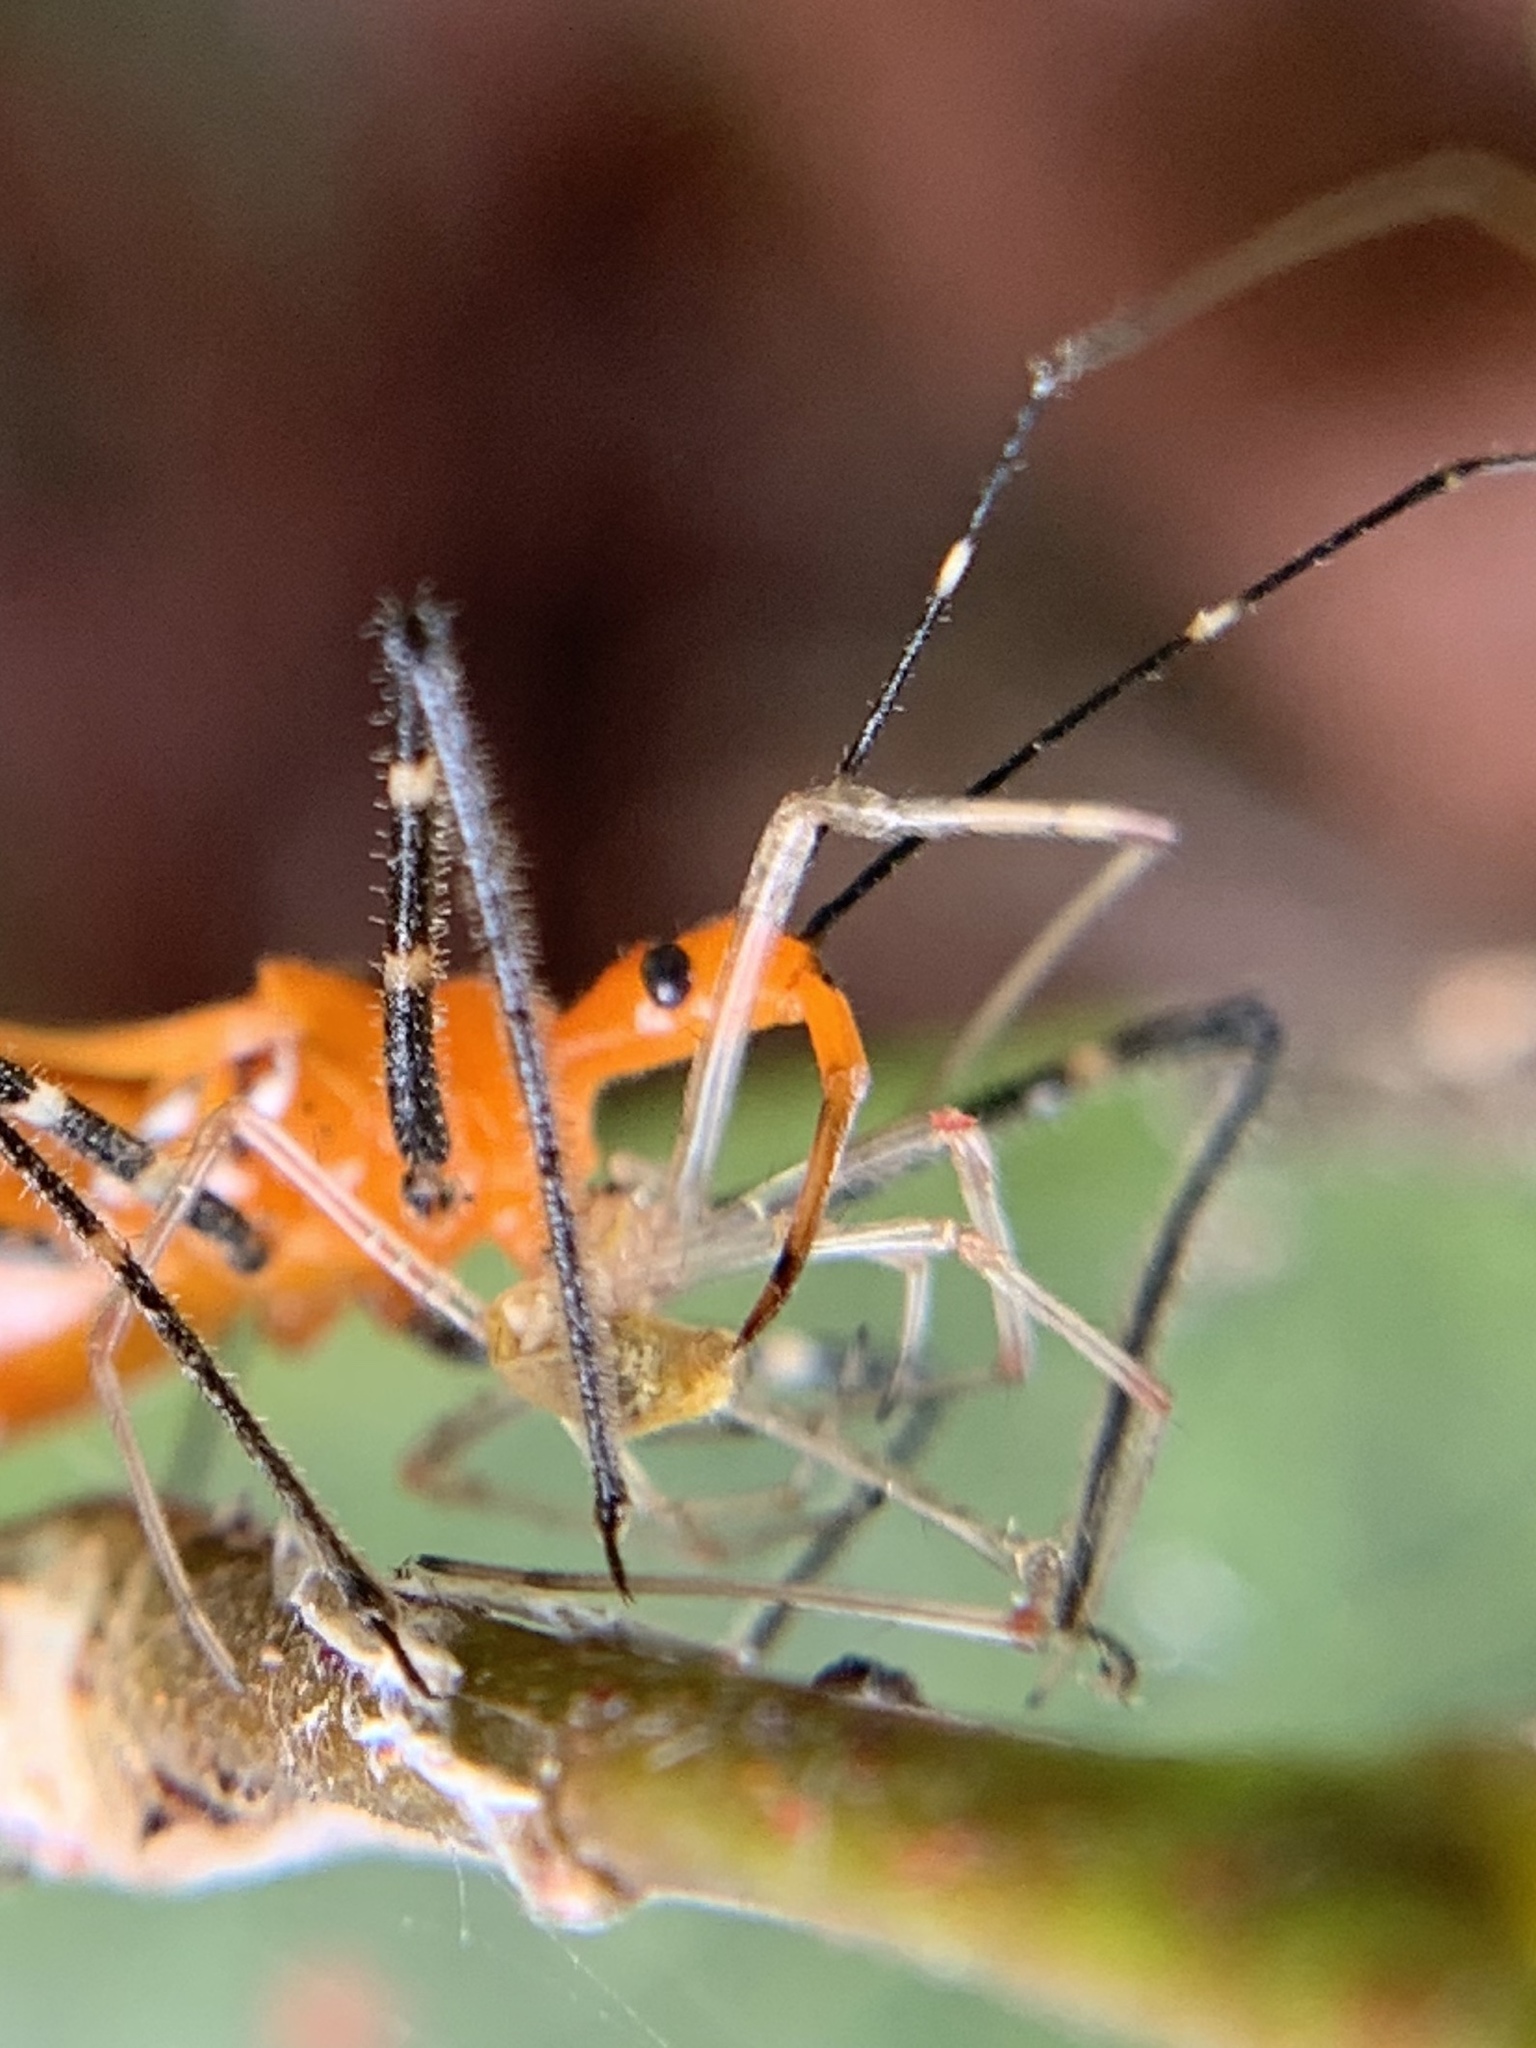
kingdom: Animalia
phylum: Arthropoda
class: Insecta
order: Hemiptera
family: Reduviidae
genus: Zelus
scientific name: Zelus longipes
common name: Milkweed assassin bug
